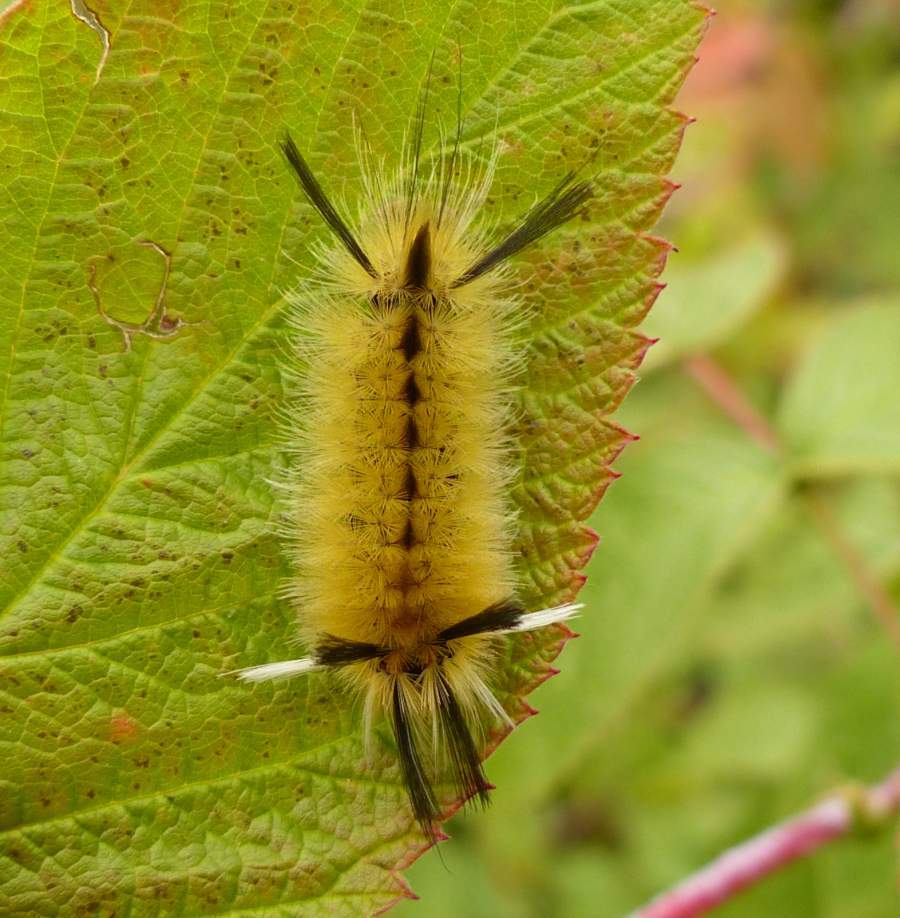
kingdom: Animalia
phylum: Arthropoda
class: Insecta
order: Lepidoptera
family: Erebidae
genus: Halysidota
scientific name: Halysidota tessellaris
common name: Banded tussock moth
